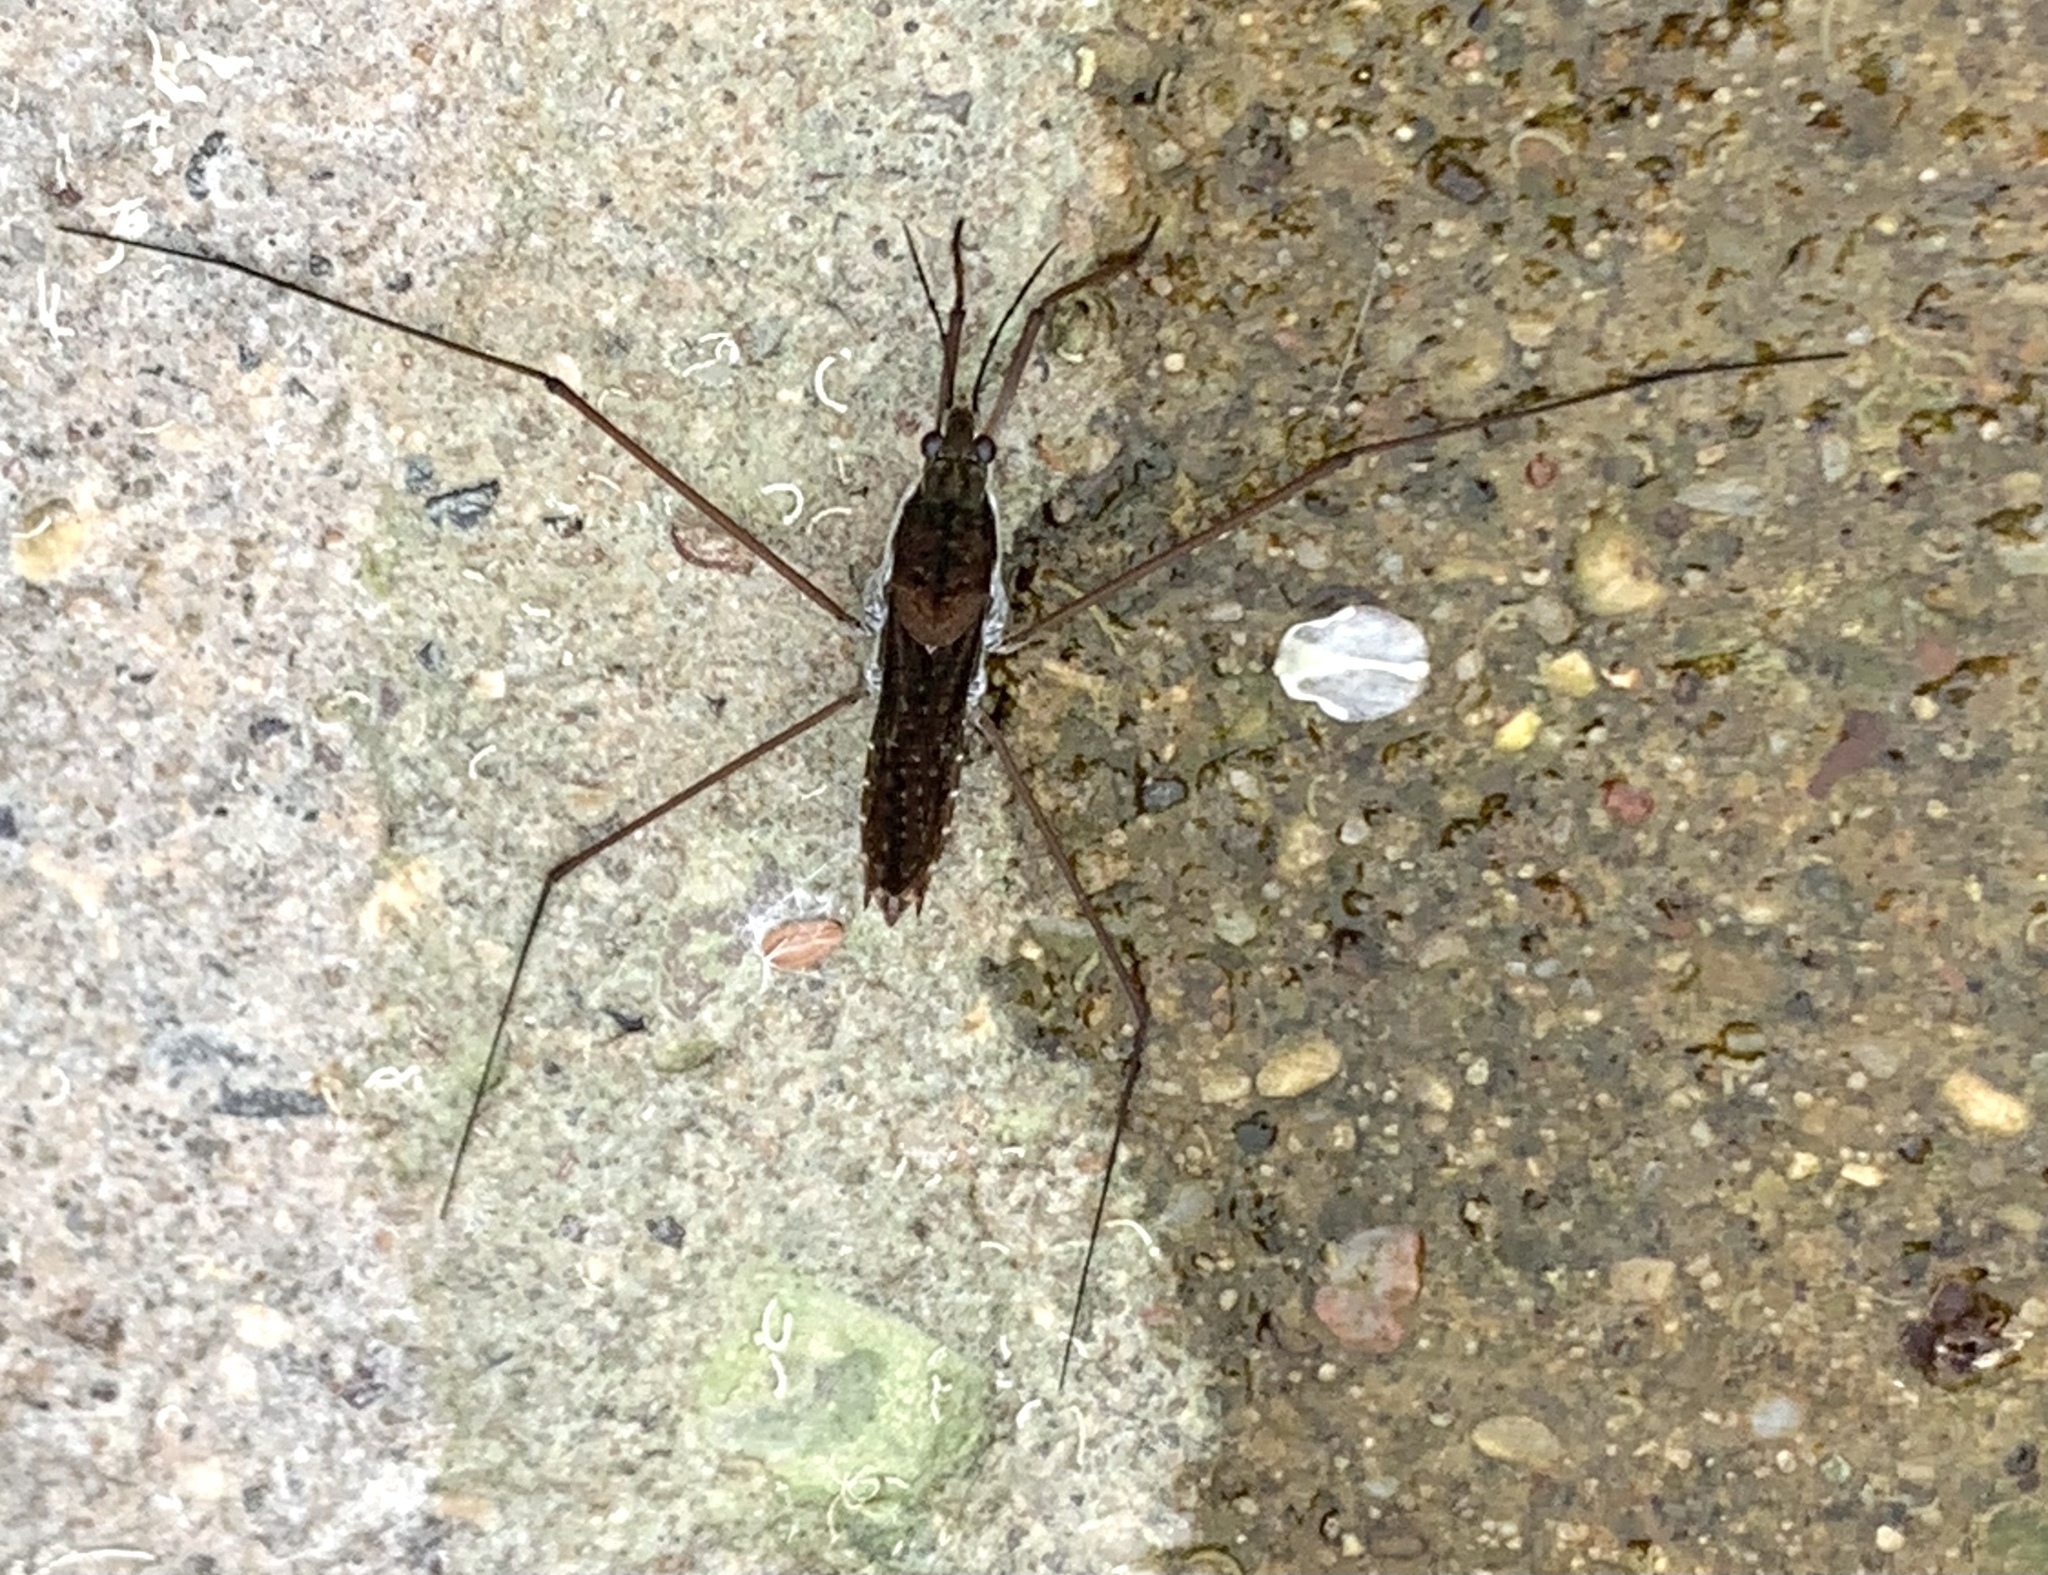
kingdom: Animalia
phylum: Arthropoda
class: Insecta
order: Hemiptera
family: Gerridae
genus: Aquarius
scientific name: Aquarius remigis
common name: Common water strider
